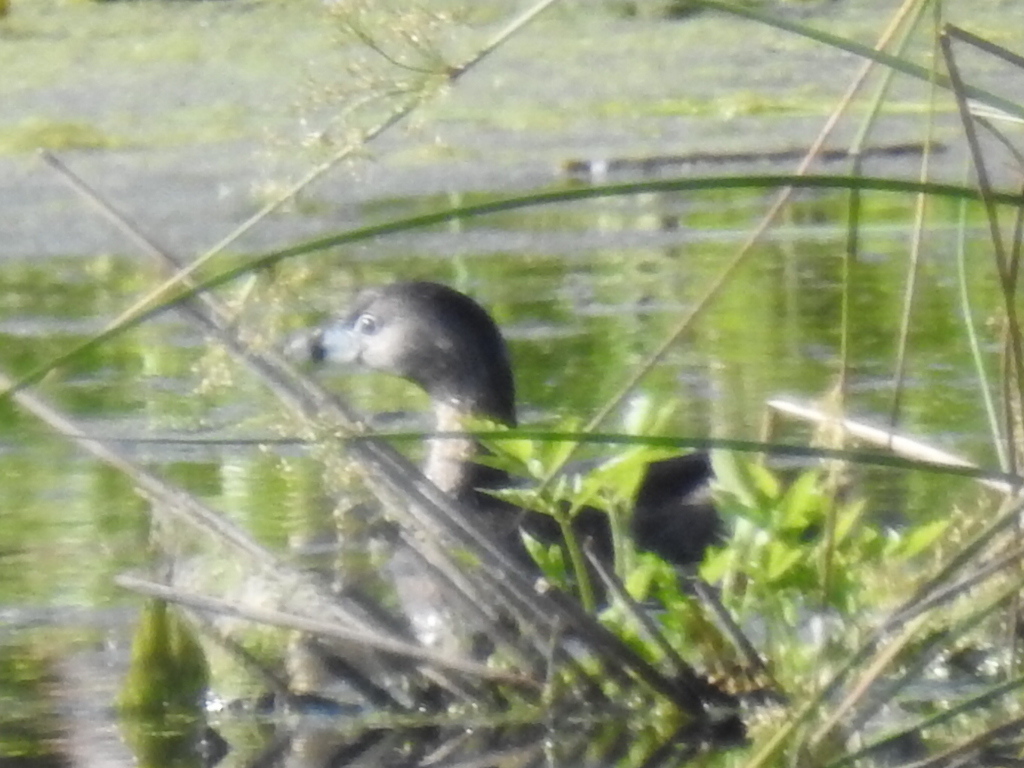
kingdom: Animalia
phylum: Chordata
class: Aves
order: Podicipediformes
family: Podicipedidae
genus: Podilymbus
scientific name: Podilymbus podiceps
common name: Pied-billed grebe
